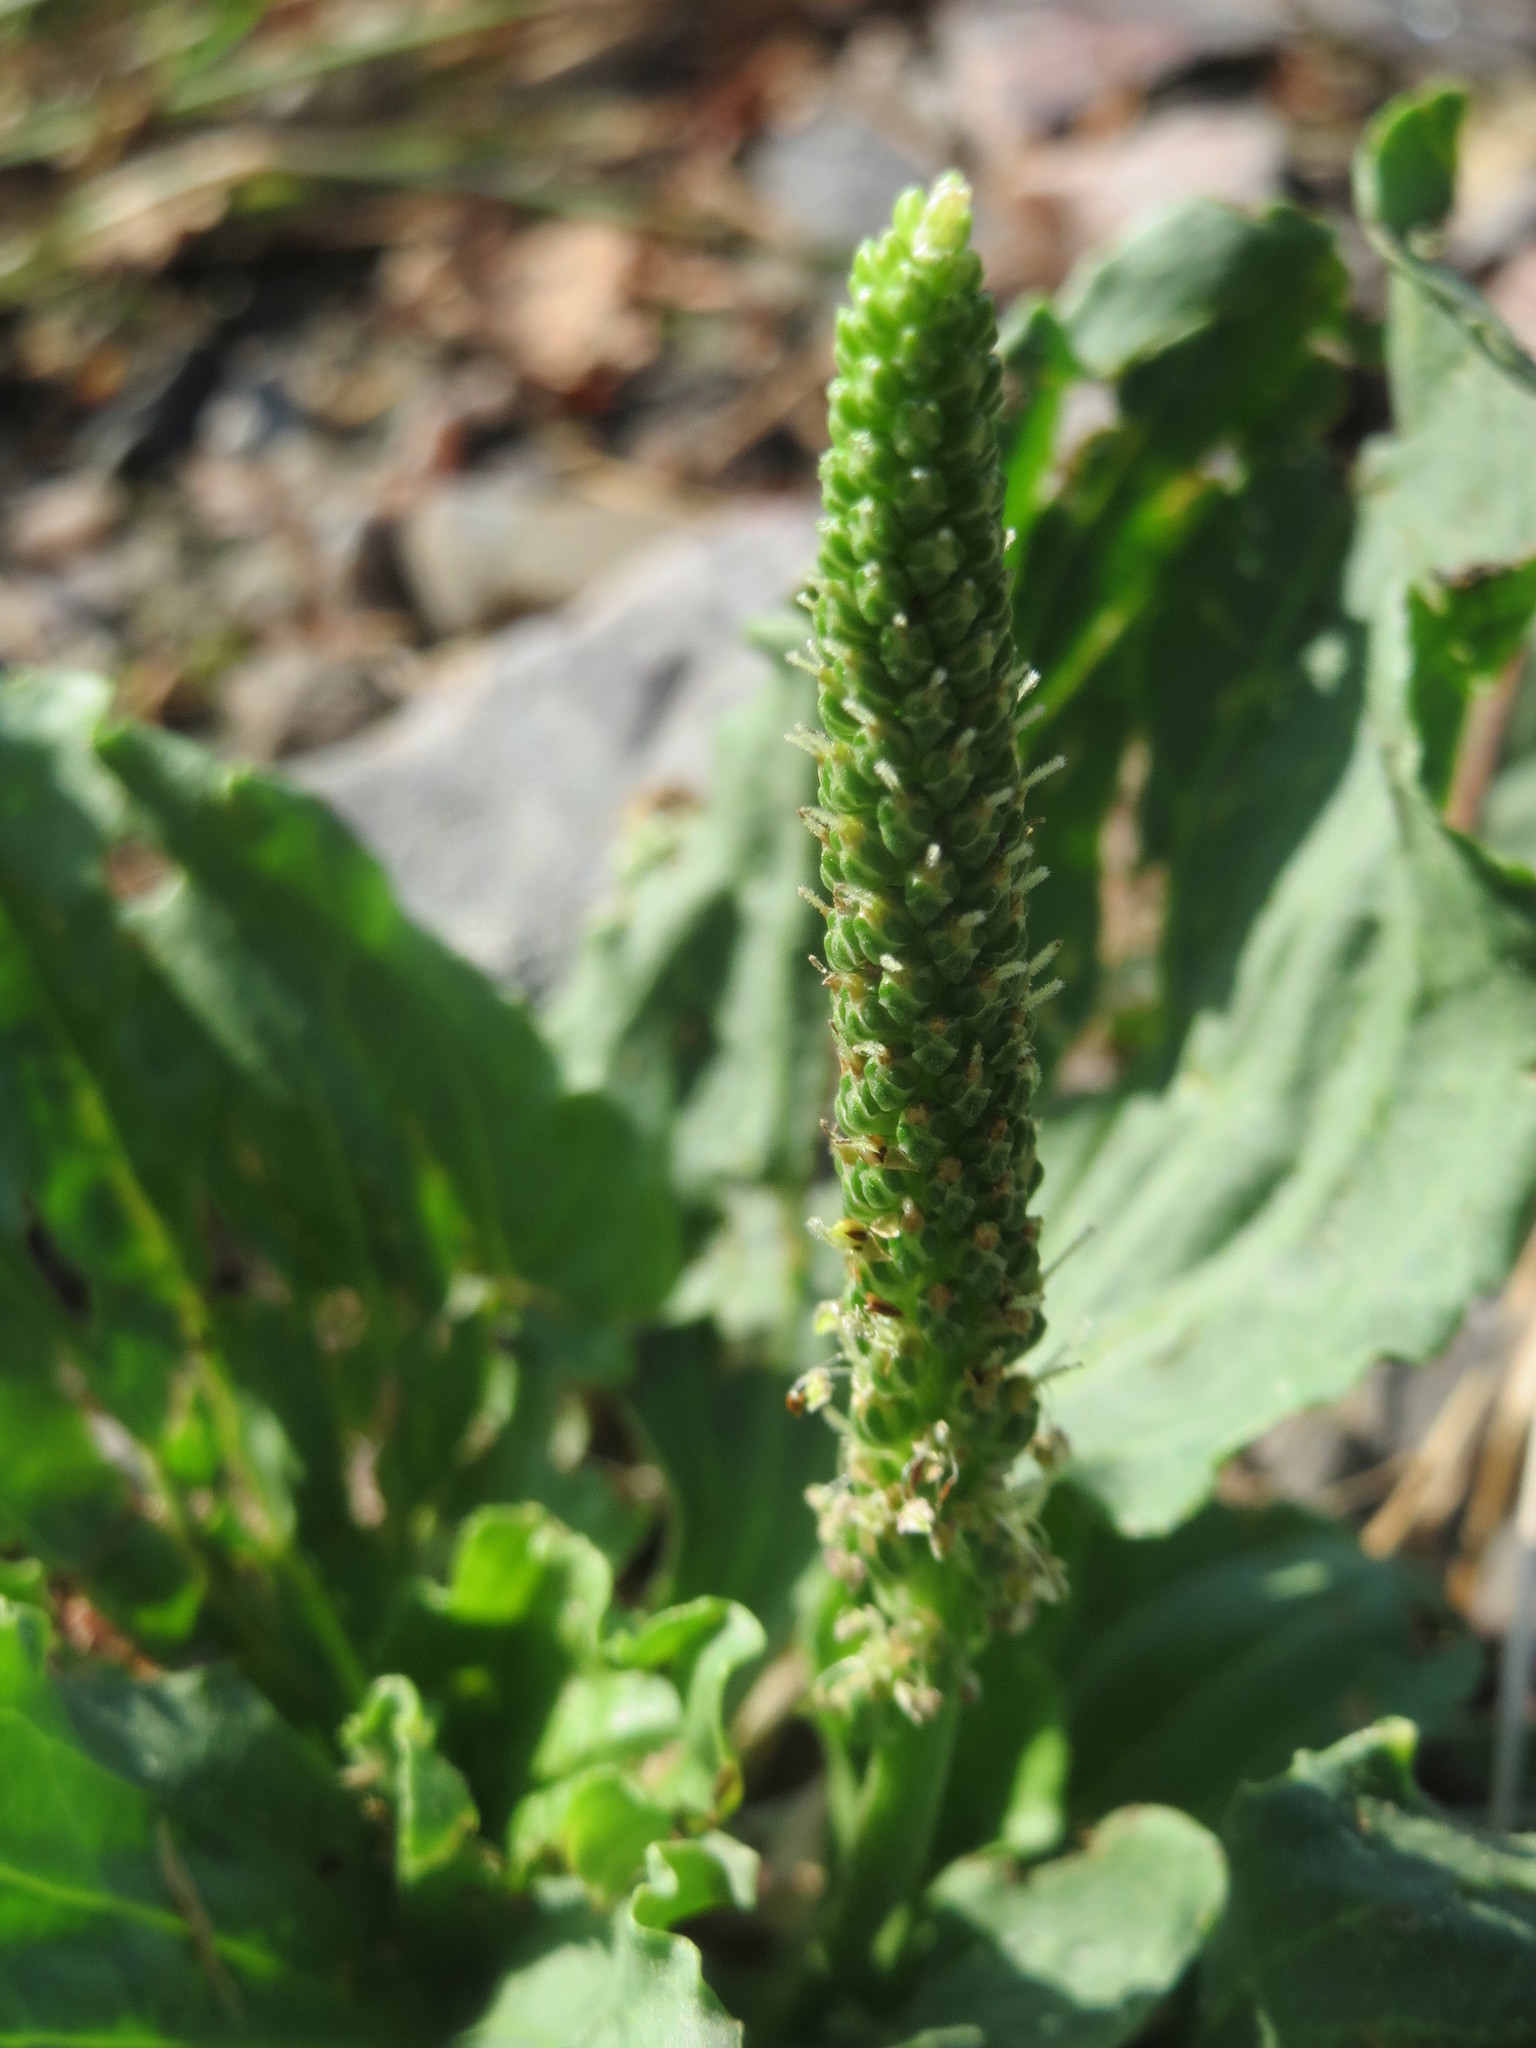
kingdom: Plantae
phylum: Tracheophyta
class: Magnoliopsida
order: Lamiales
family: Plantaginaceae
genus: Plantago
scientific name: Plantago major
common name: Common plantain
